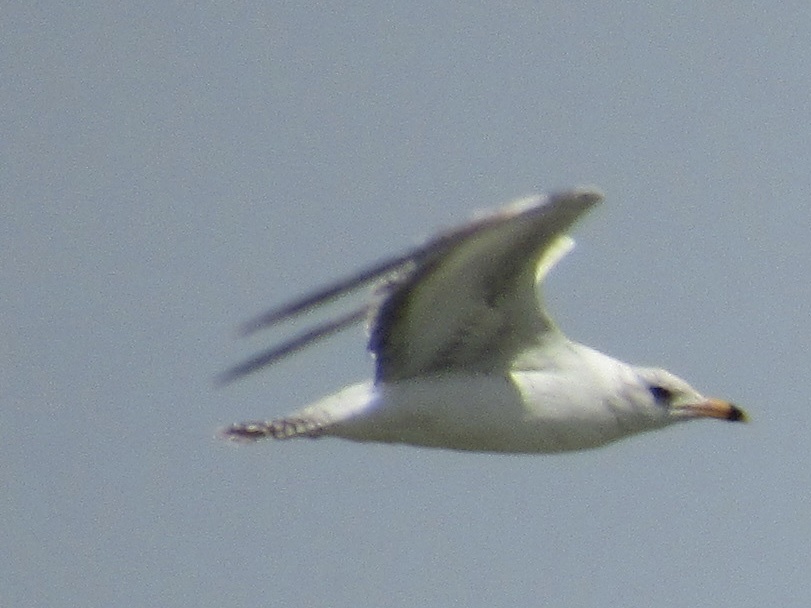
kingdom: Animalia
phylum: Chordata
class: Aves
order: Charadriiformes
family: Laridae
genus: Larus
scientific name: Larus delawarensis
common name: Ring-billed gull
